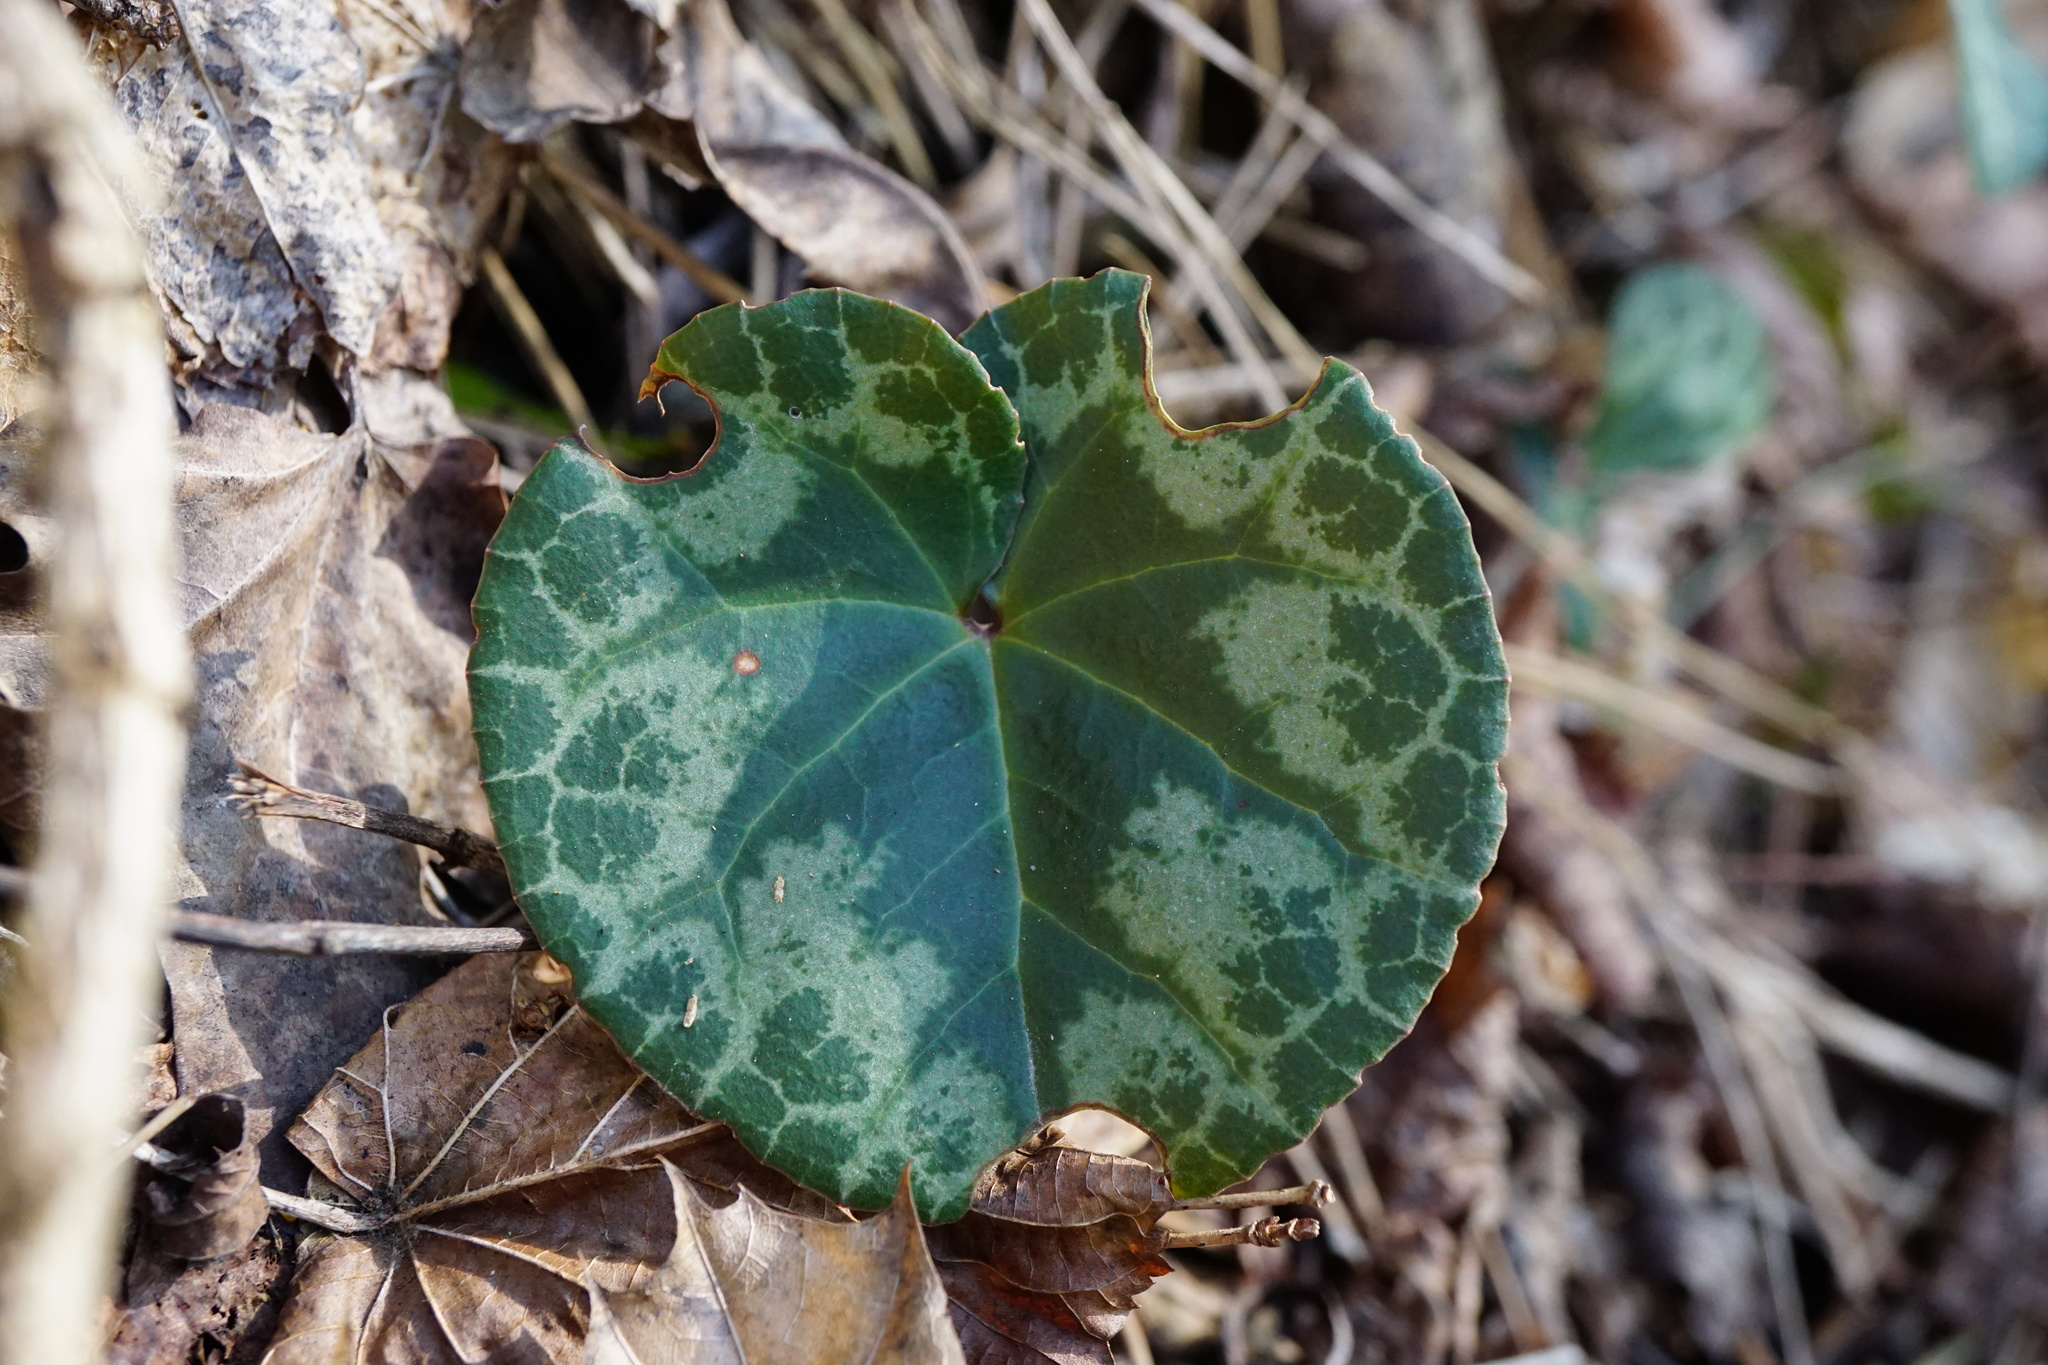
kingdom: Plantae
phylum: Tracheophyta
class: Magnoliopsida
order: Ericales
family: Primulaceae
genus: Cyclamen
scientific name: Cyclamen purpurascens
